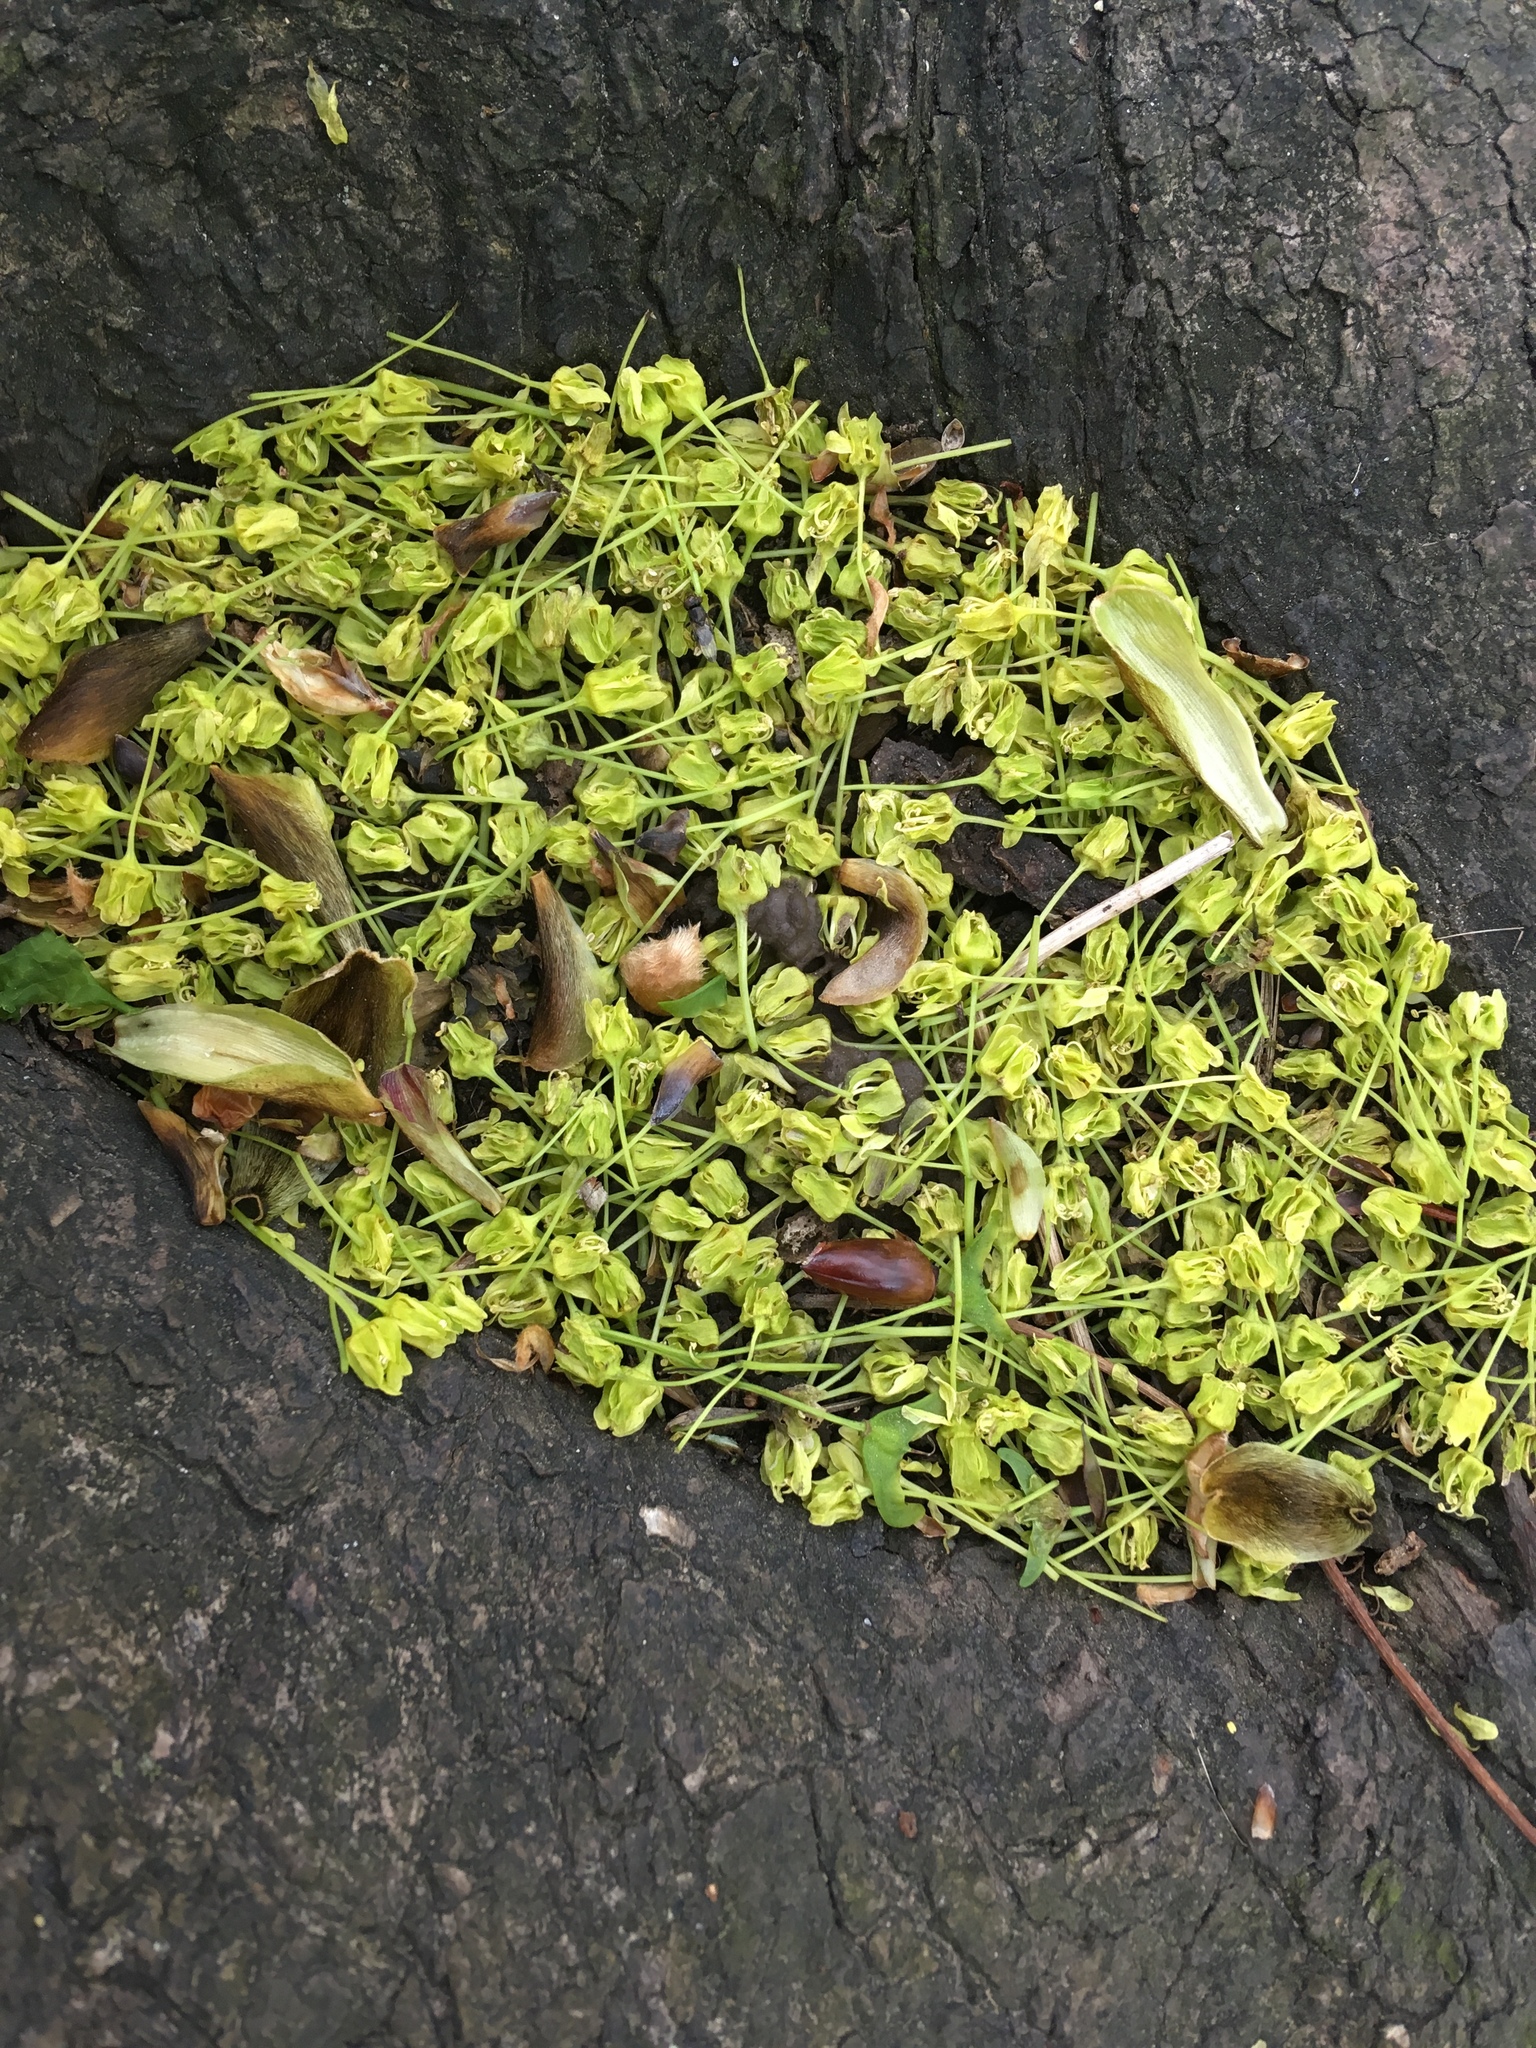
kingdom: Plantae
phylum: Tracheophyta
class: Magnoliopsida
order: Sapindales
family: Sapindaceae
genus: Acer
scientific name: Acer platanoides
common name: Norway maple
